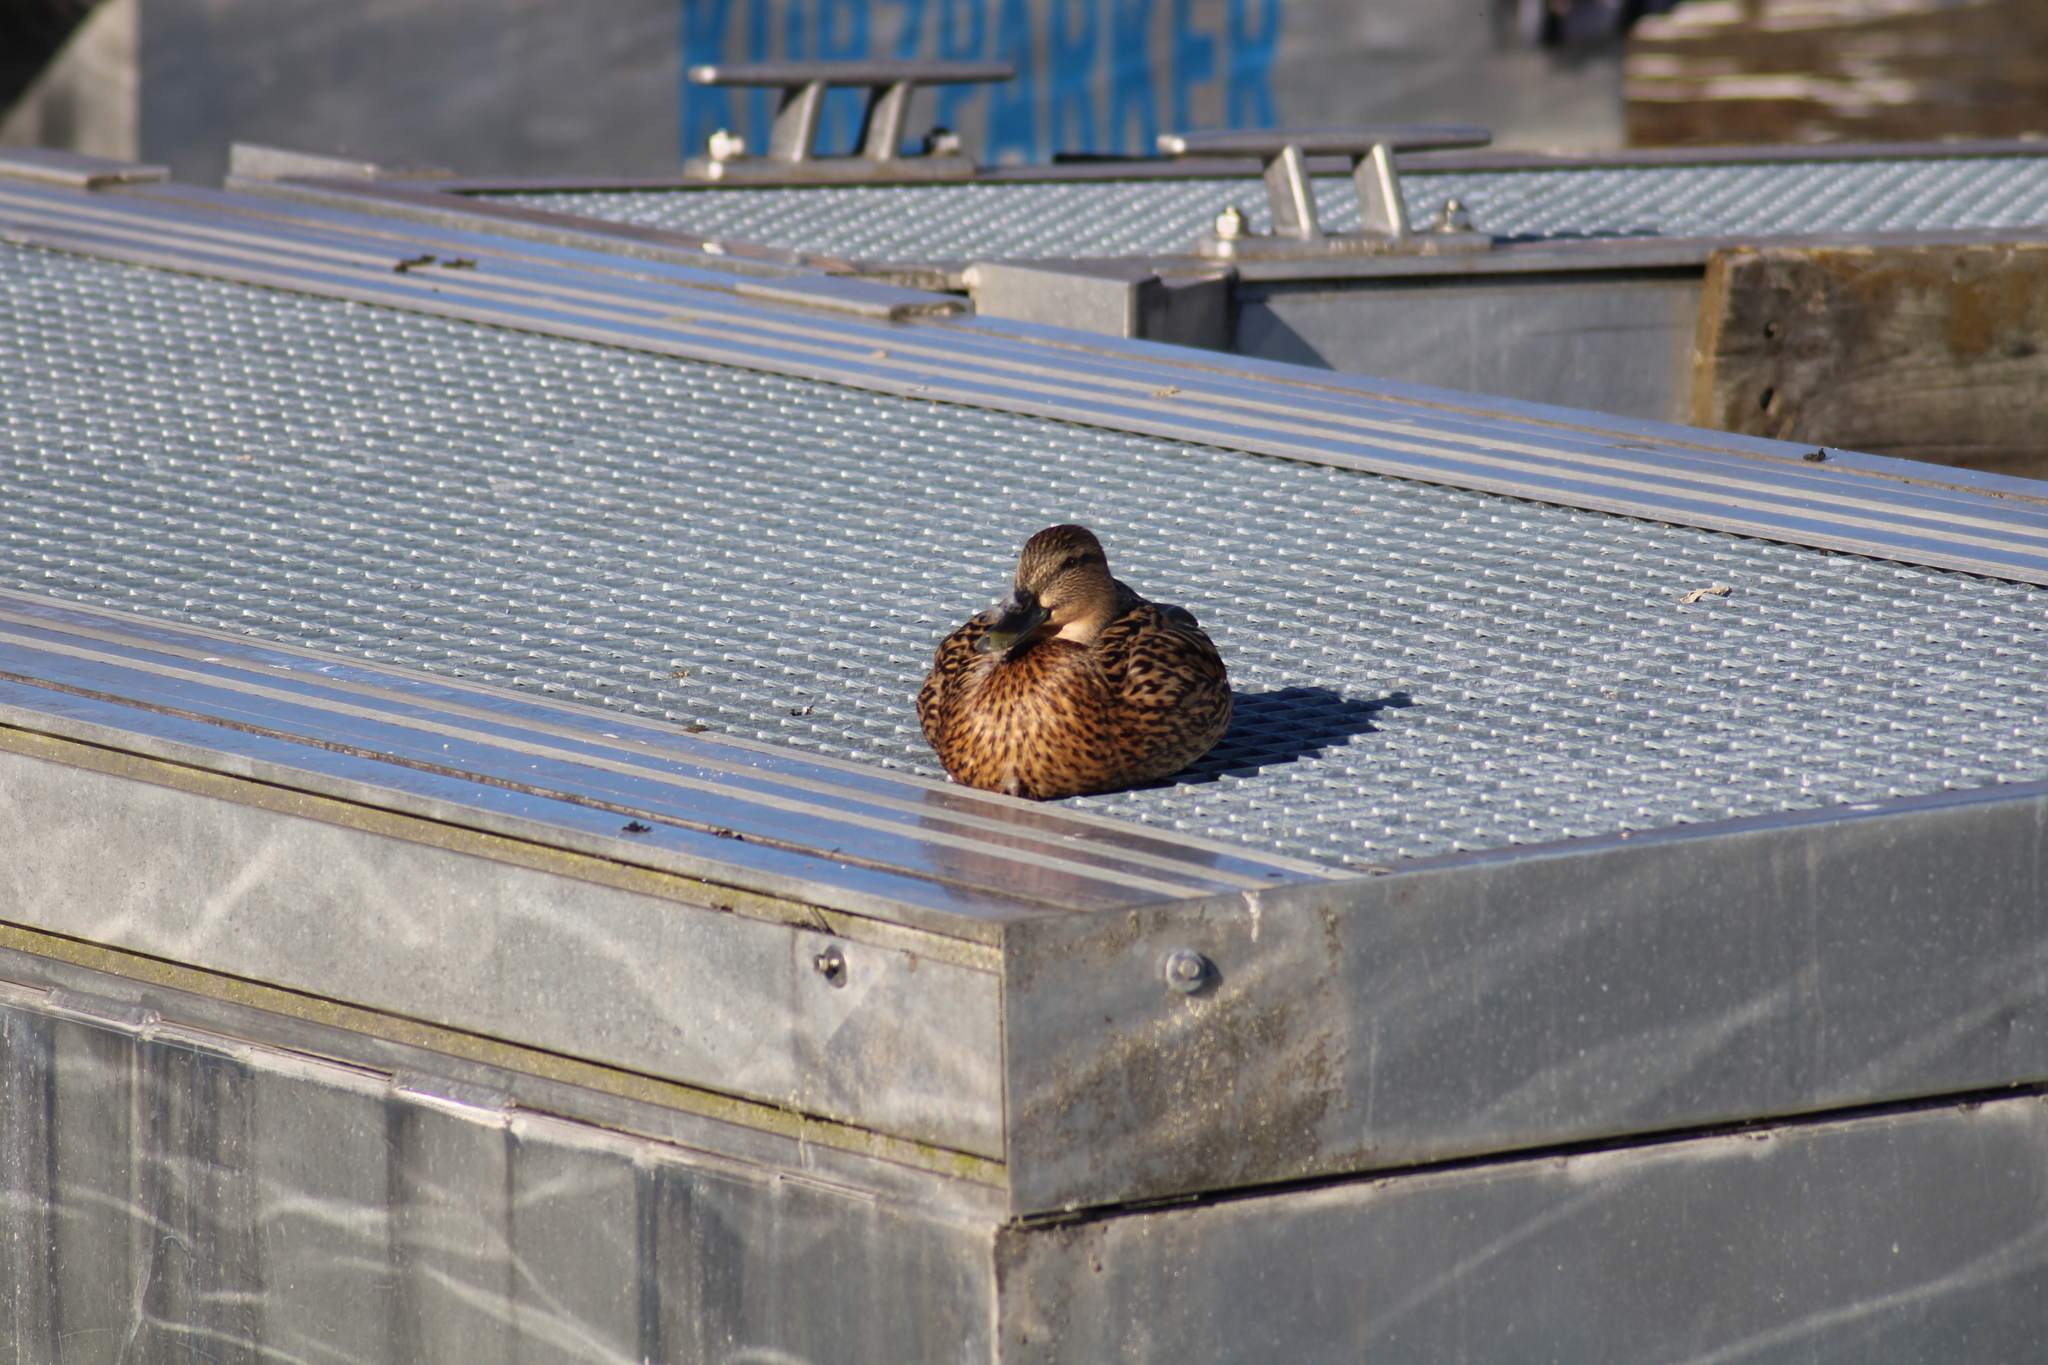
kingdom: Animalia
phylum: Chordata
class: Aves
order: Anseriformes
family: Anatidae
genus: Anas
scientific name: Anas platyrhynchos
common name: Mallard
